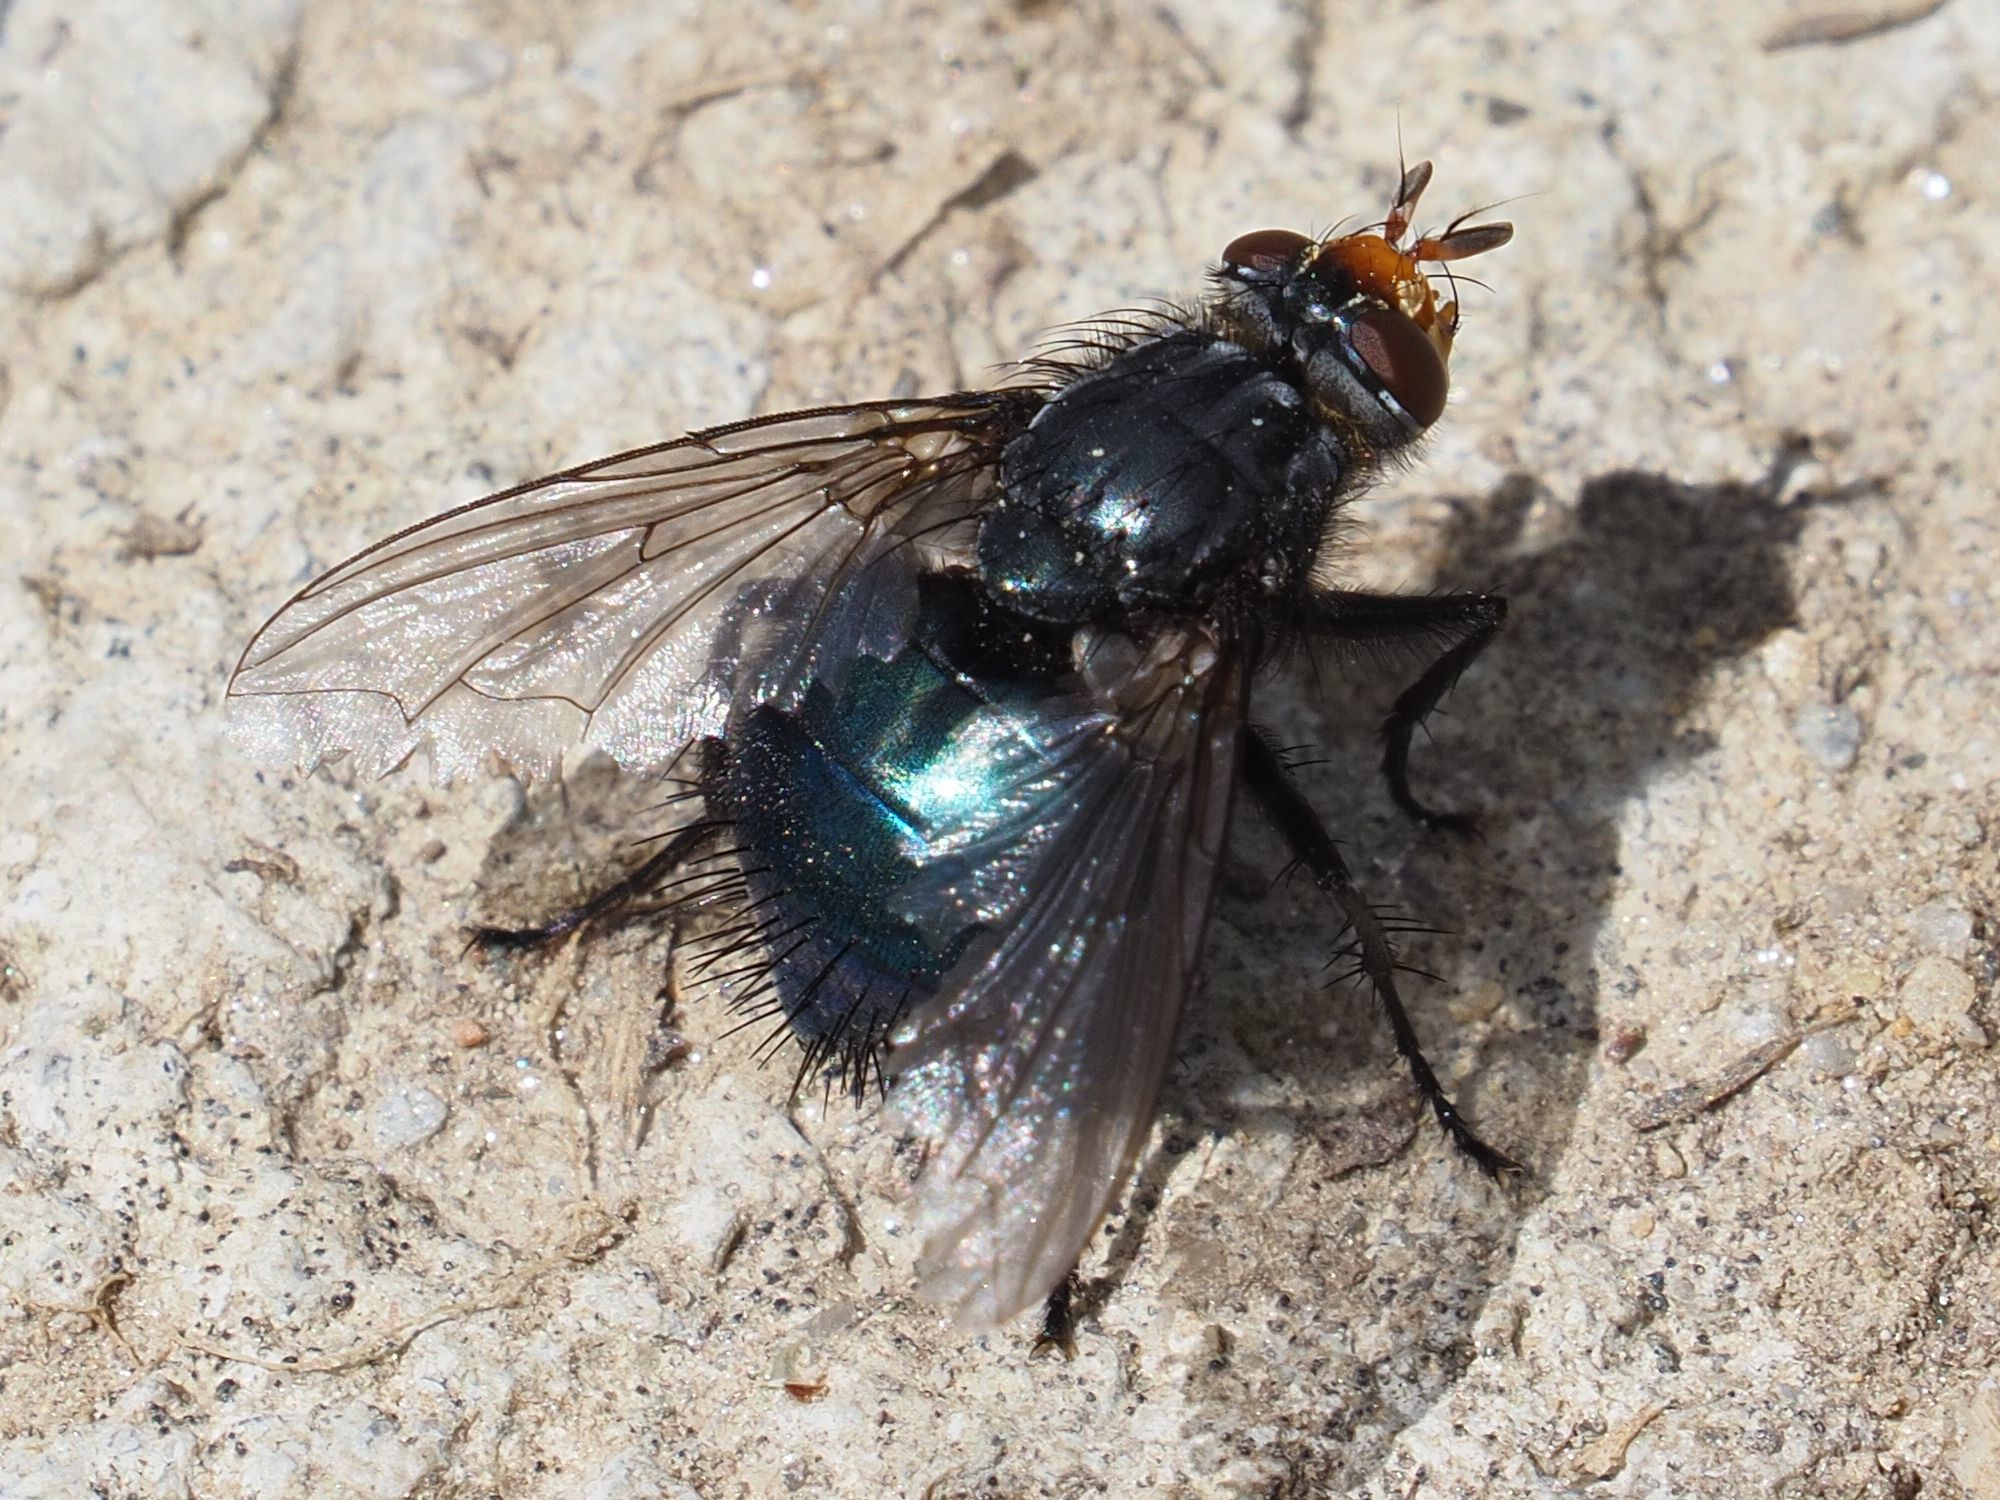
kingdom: Animalia
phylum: Arthropoda
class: Insecta
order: Diptera
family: Calliphoridae
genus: Cynomya
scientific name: Cynomya mortuorum
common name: Bluebottle blow fly
